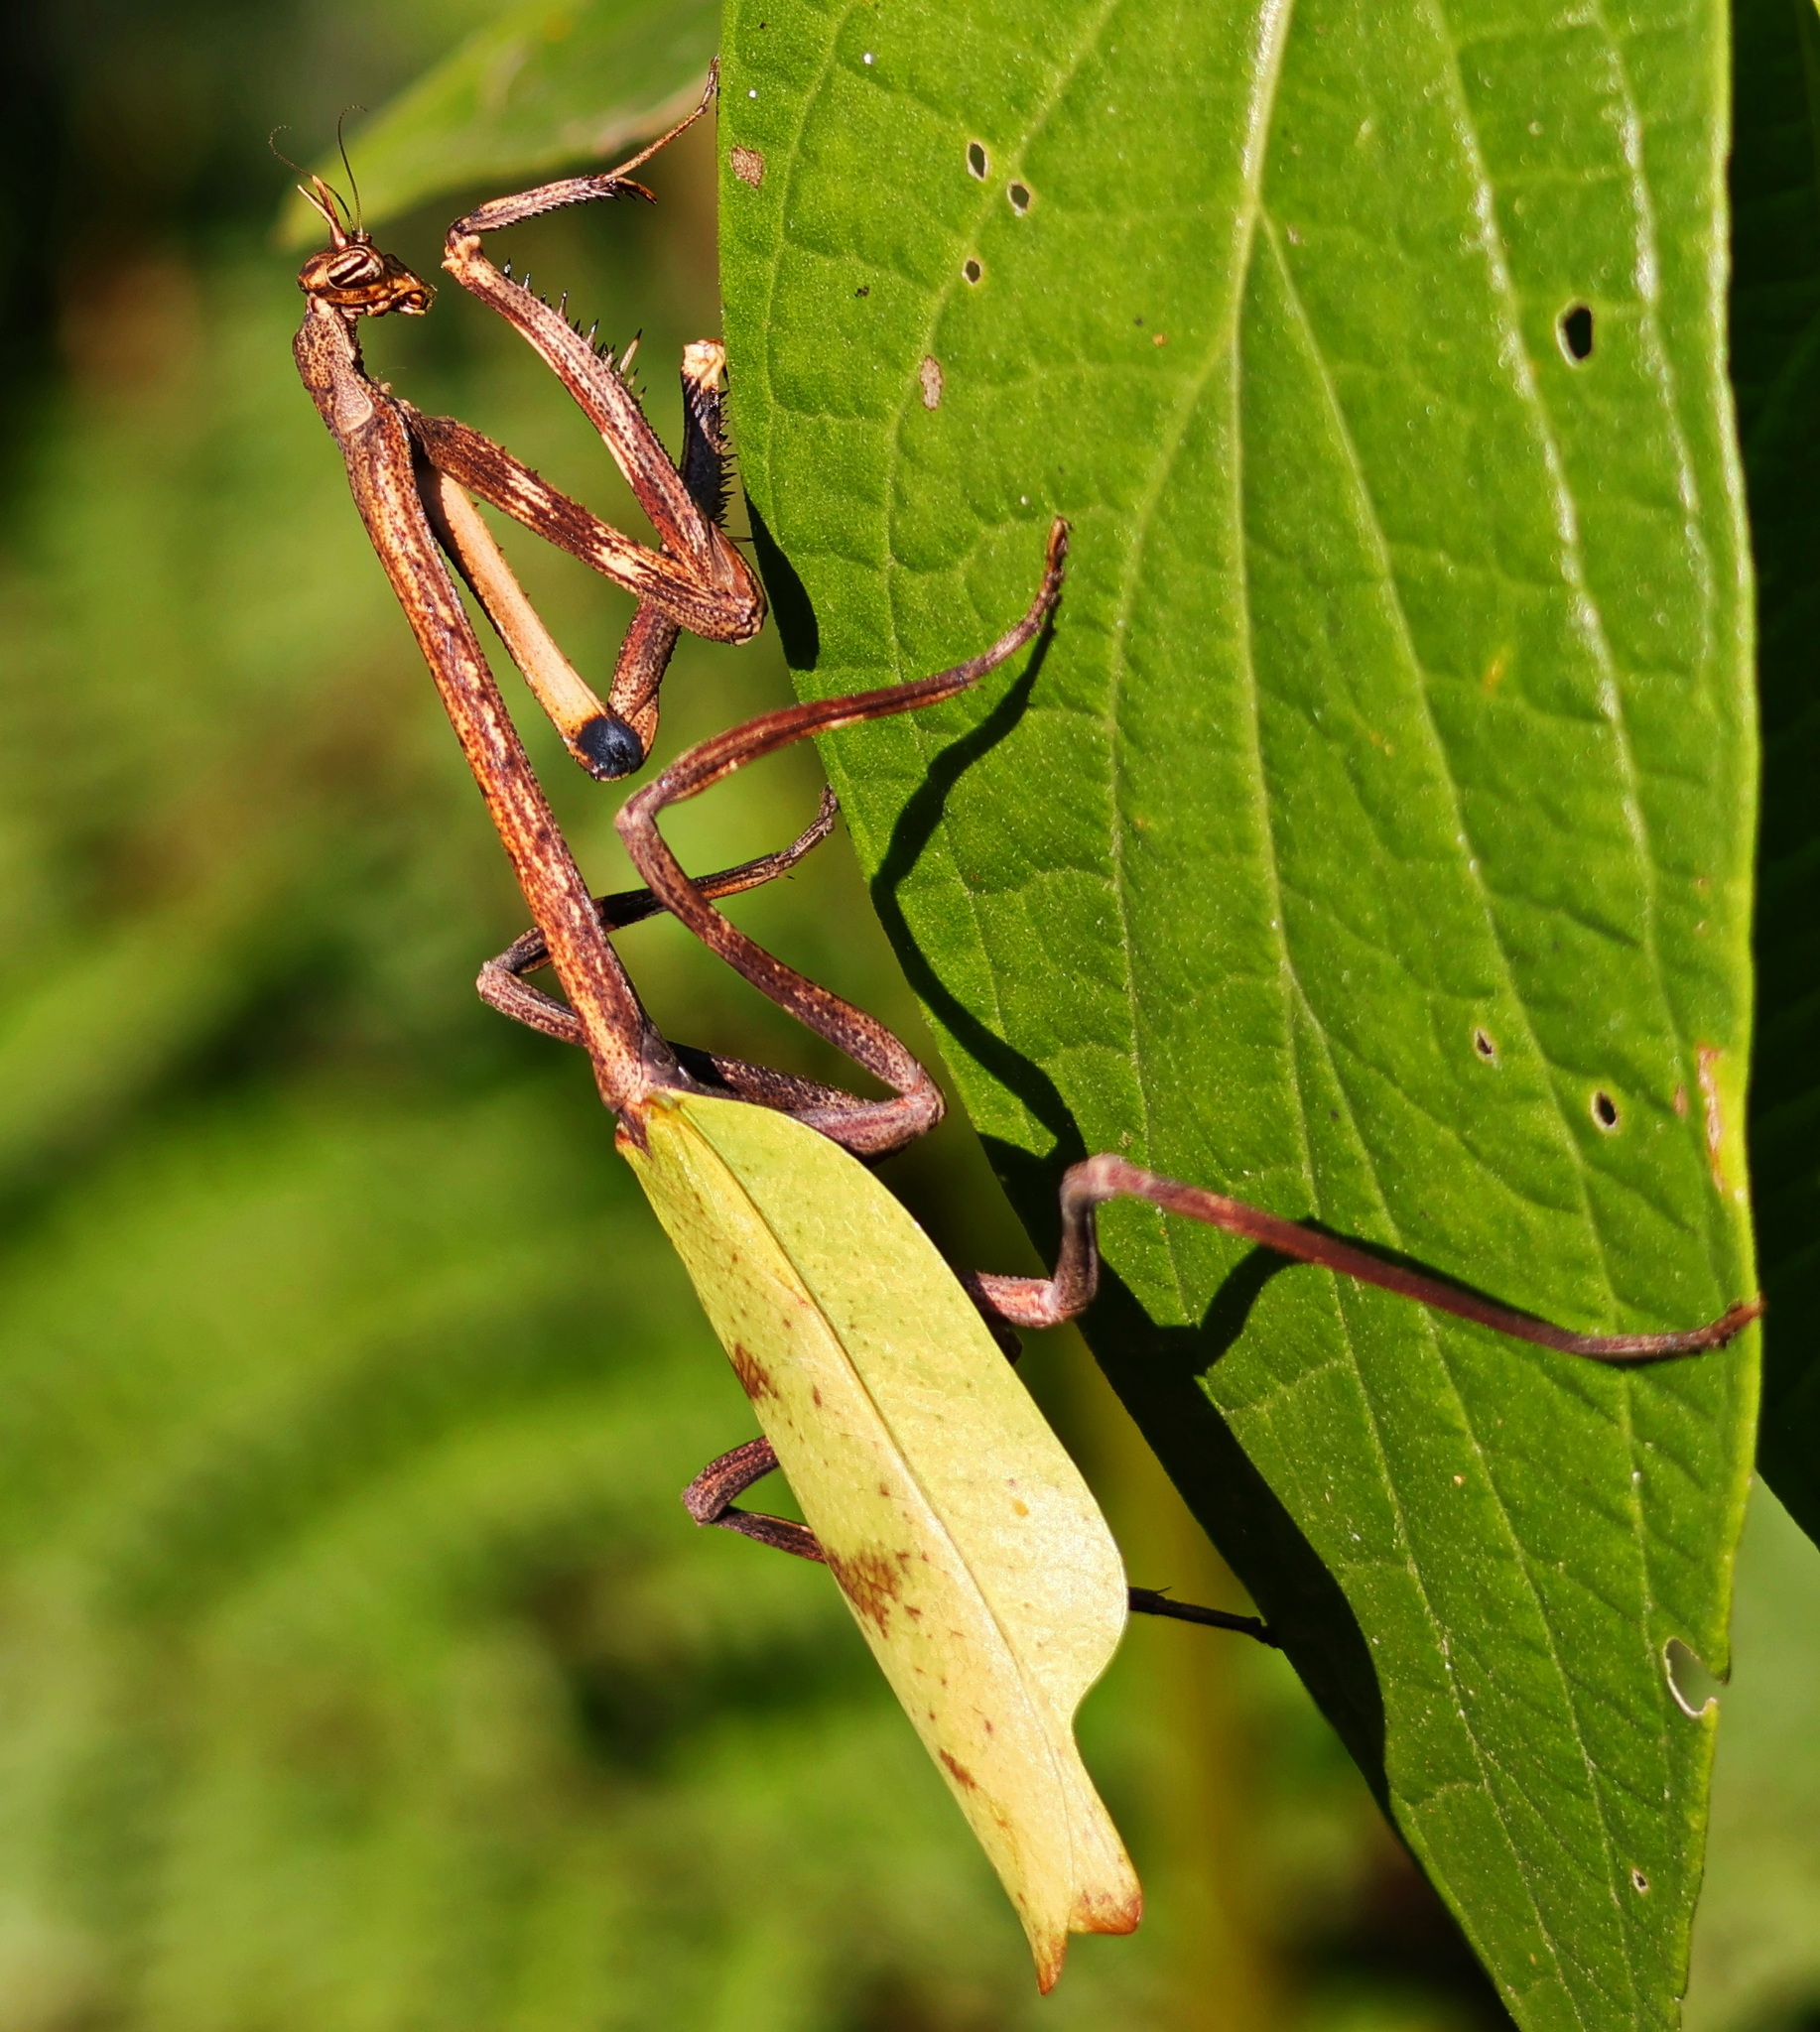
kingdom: Animalia
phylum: Arthropoda
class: Insecta
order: Mantodea
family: Mantidae
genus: Pseudovates
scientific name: Pseudovates chlorophaea
